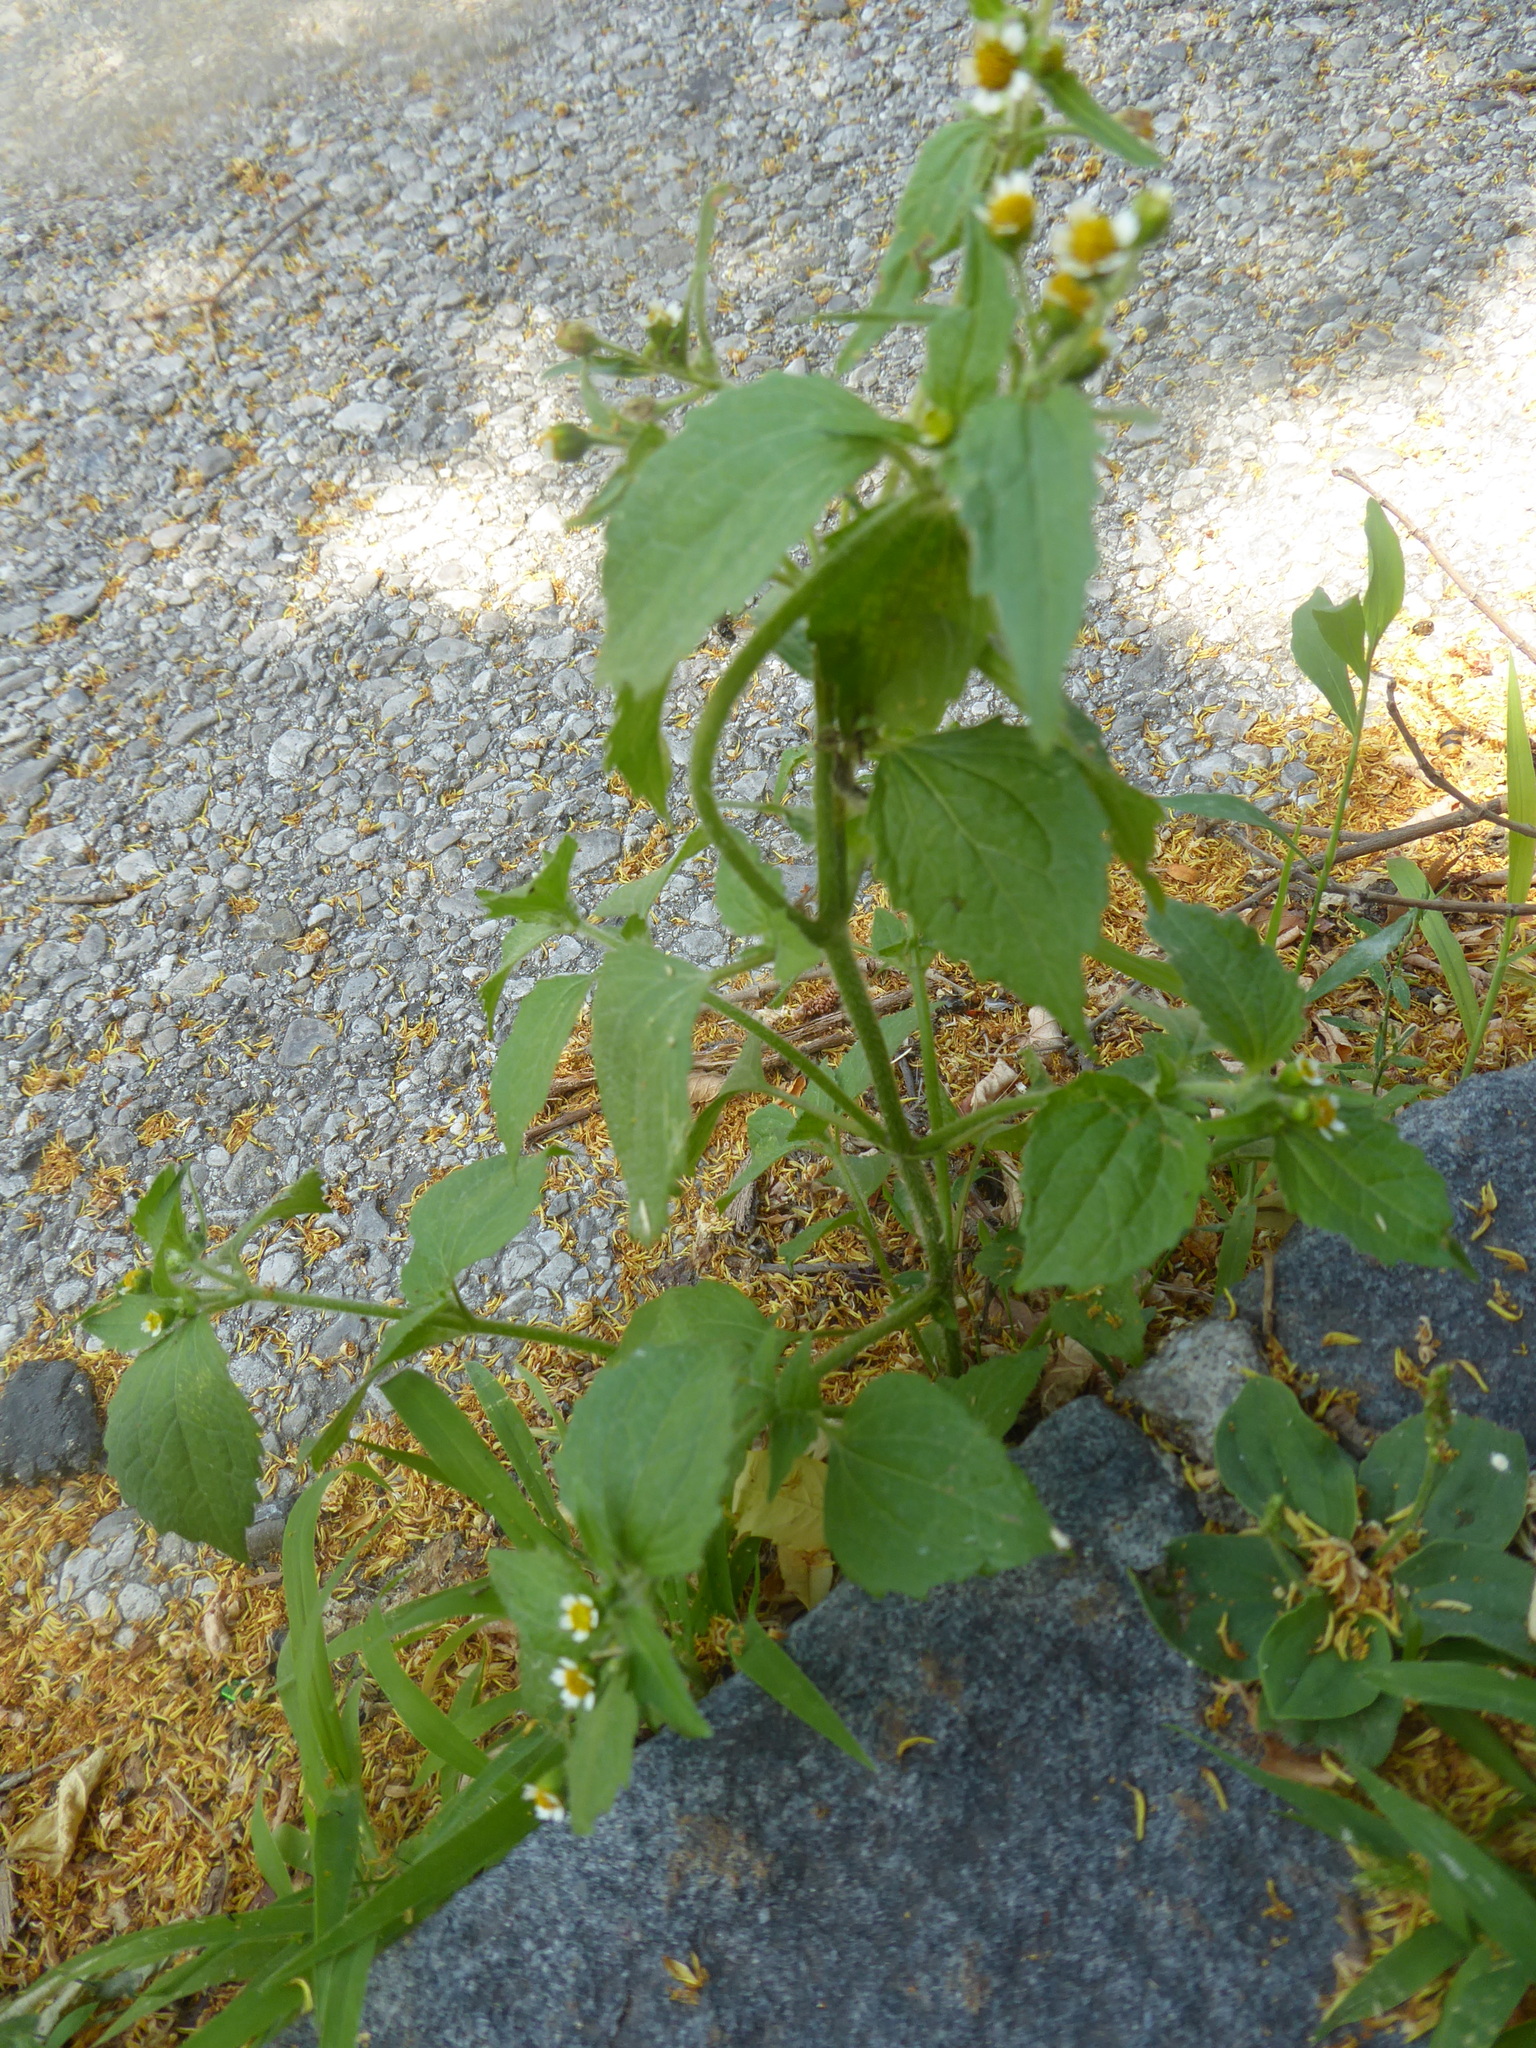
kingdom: Plantae
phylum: Tracheophyta
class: Magnoliopsida
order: Asterales
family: Asteraceae
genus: Galinsoga
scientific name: Galinsoga quadriradiata
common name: Shaggy soldier
